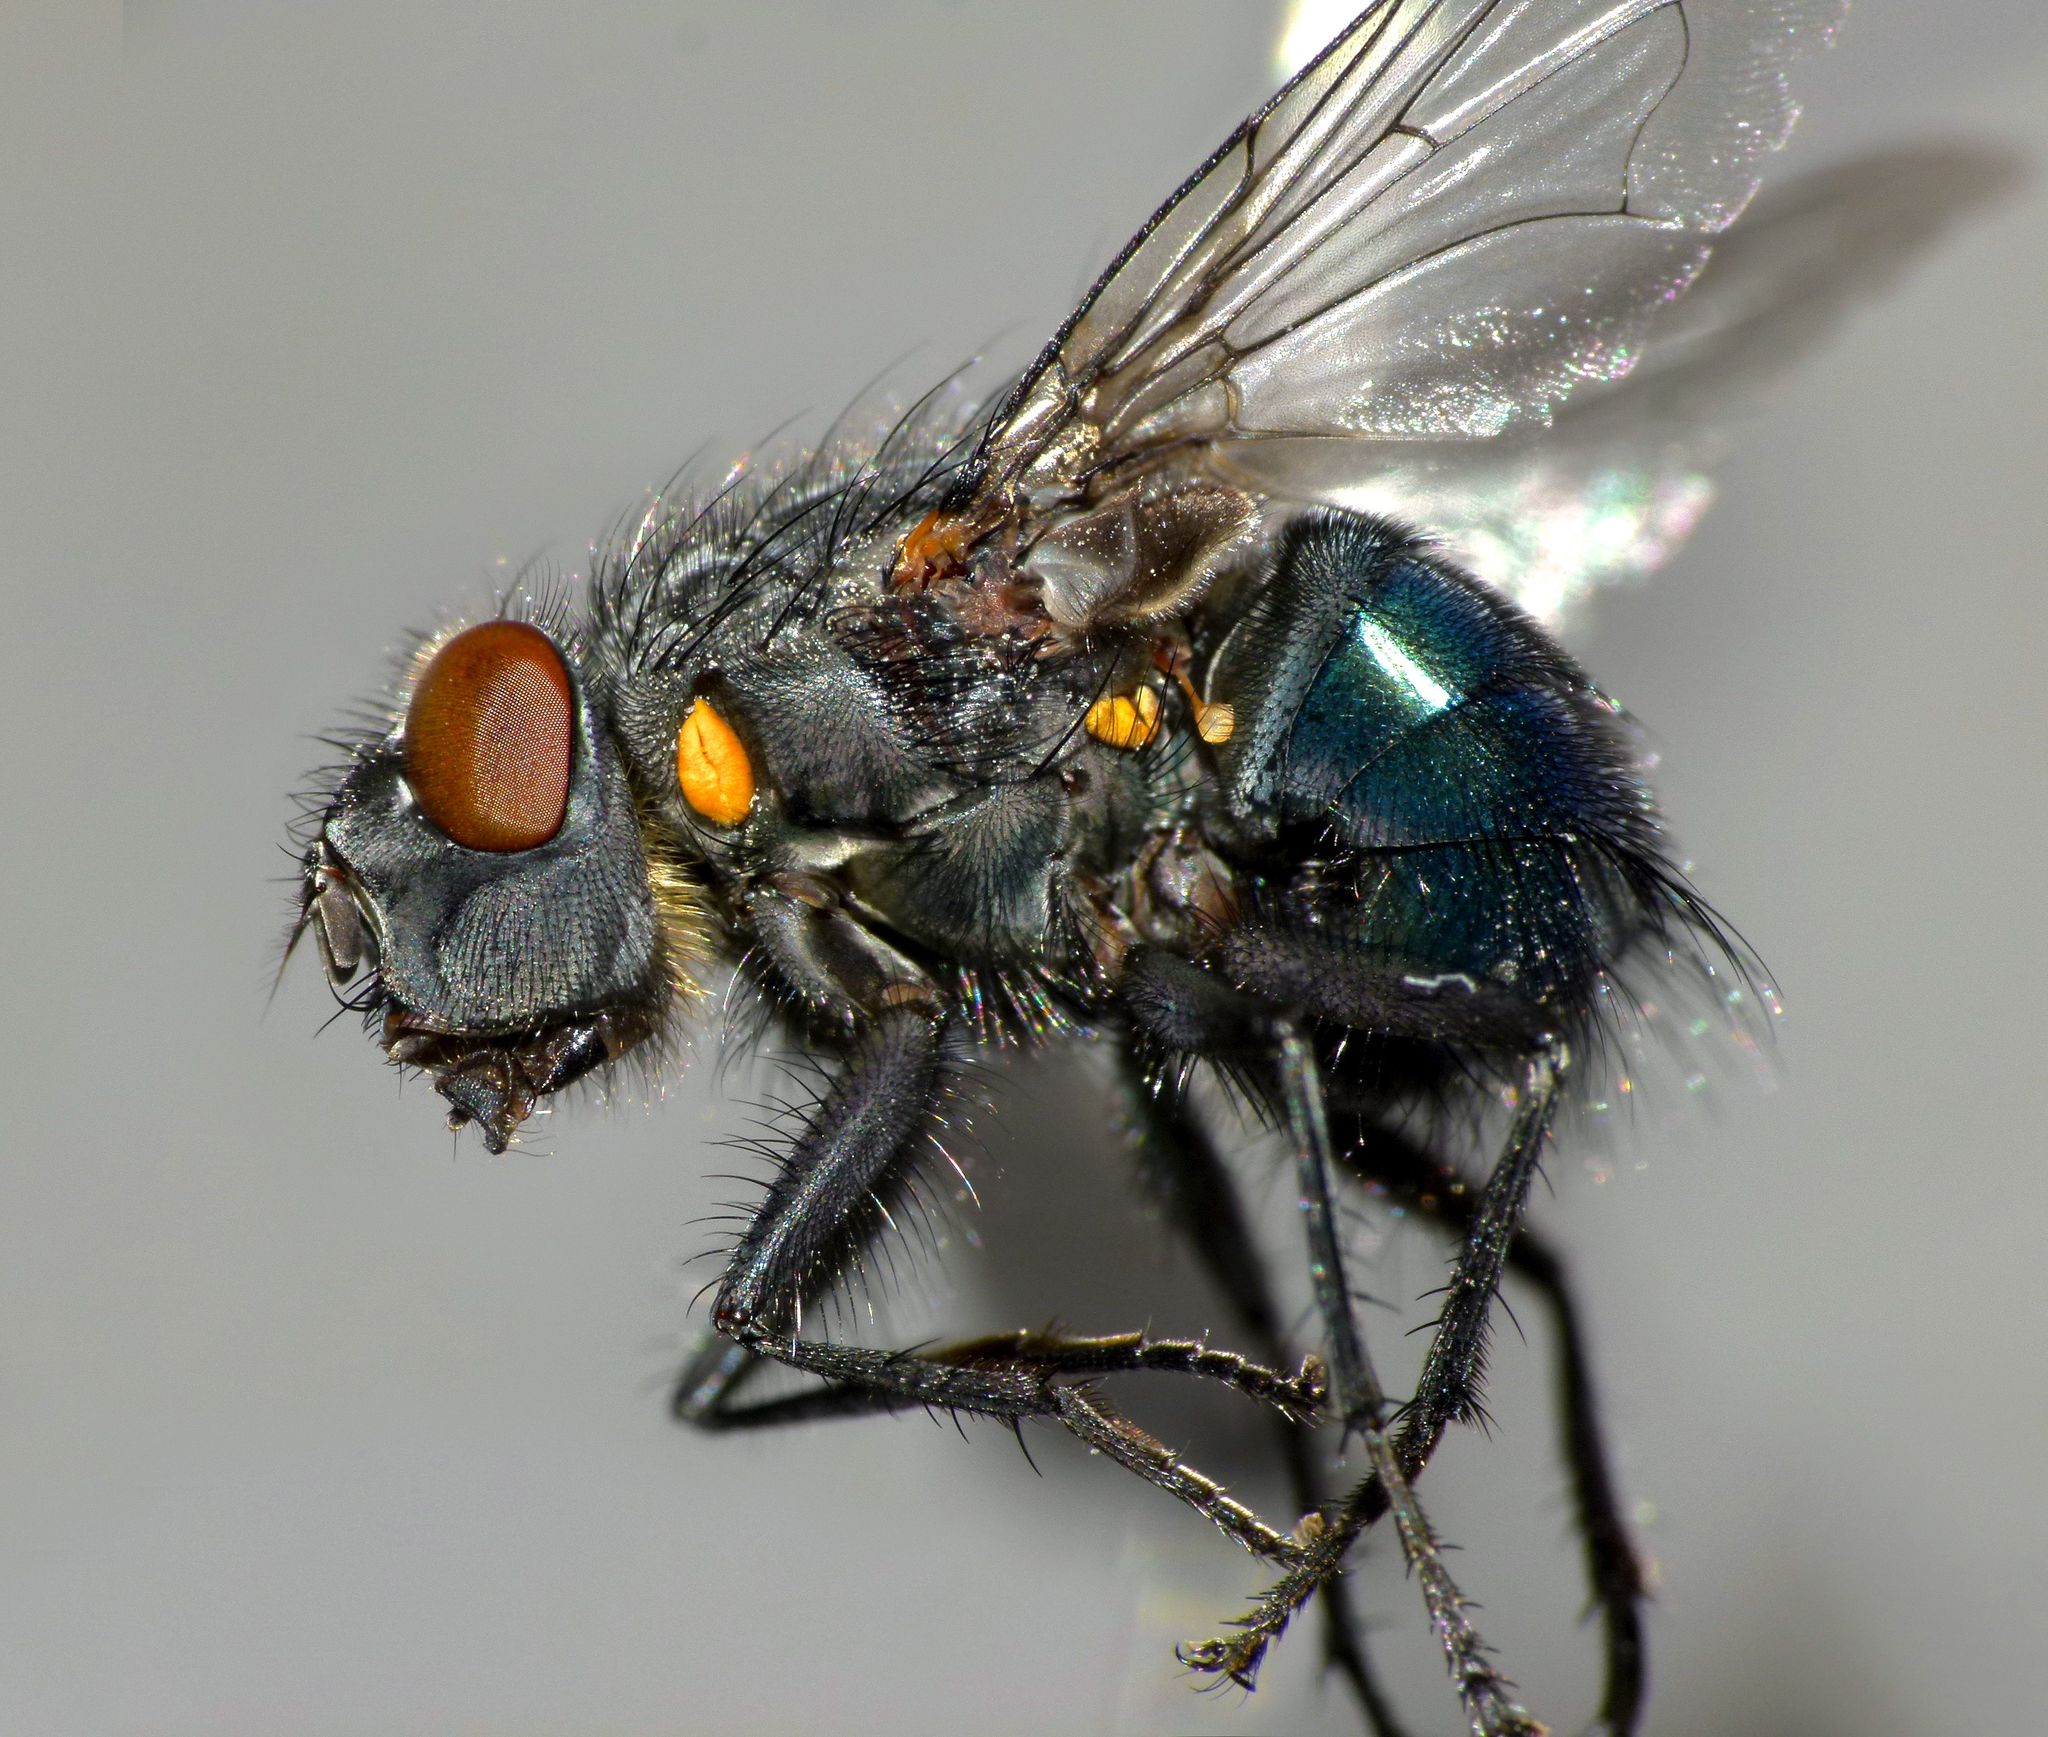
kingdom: Animalia
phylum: Arthropoda
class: Insecta
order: Diptera
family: Calliphoridae
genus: Ptilonesia
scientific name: Ptilonesia auronotata
